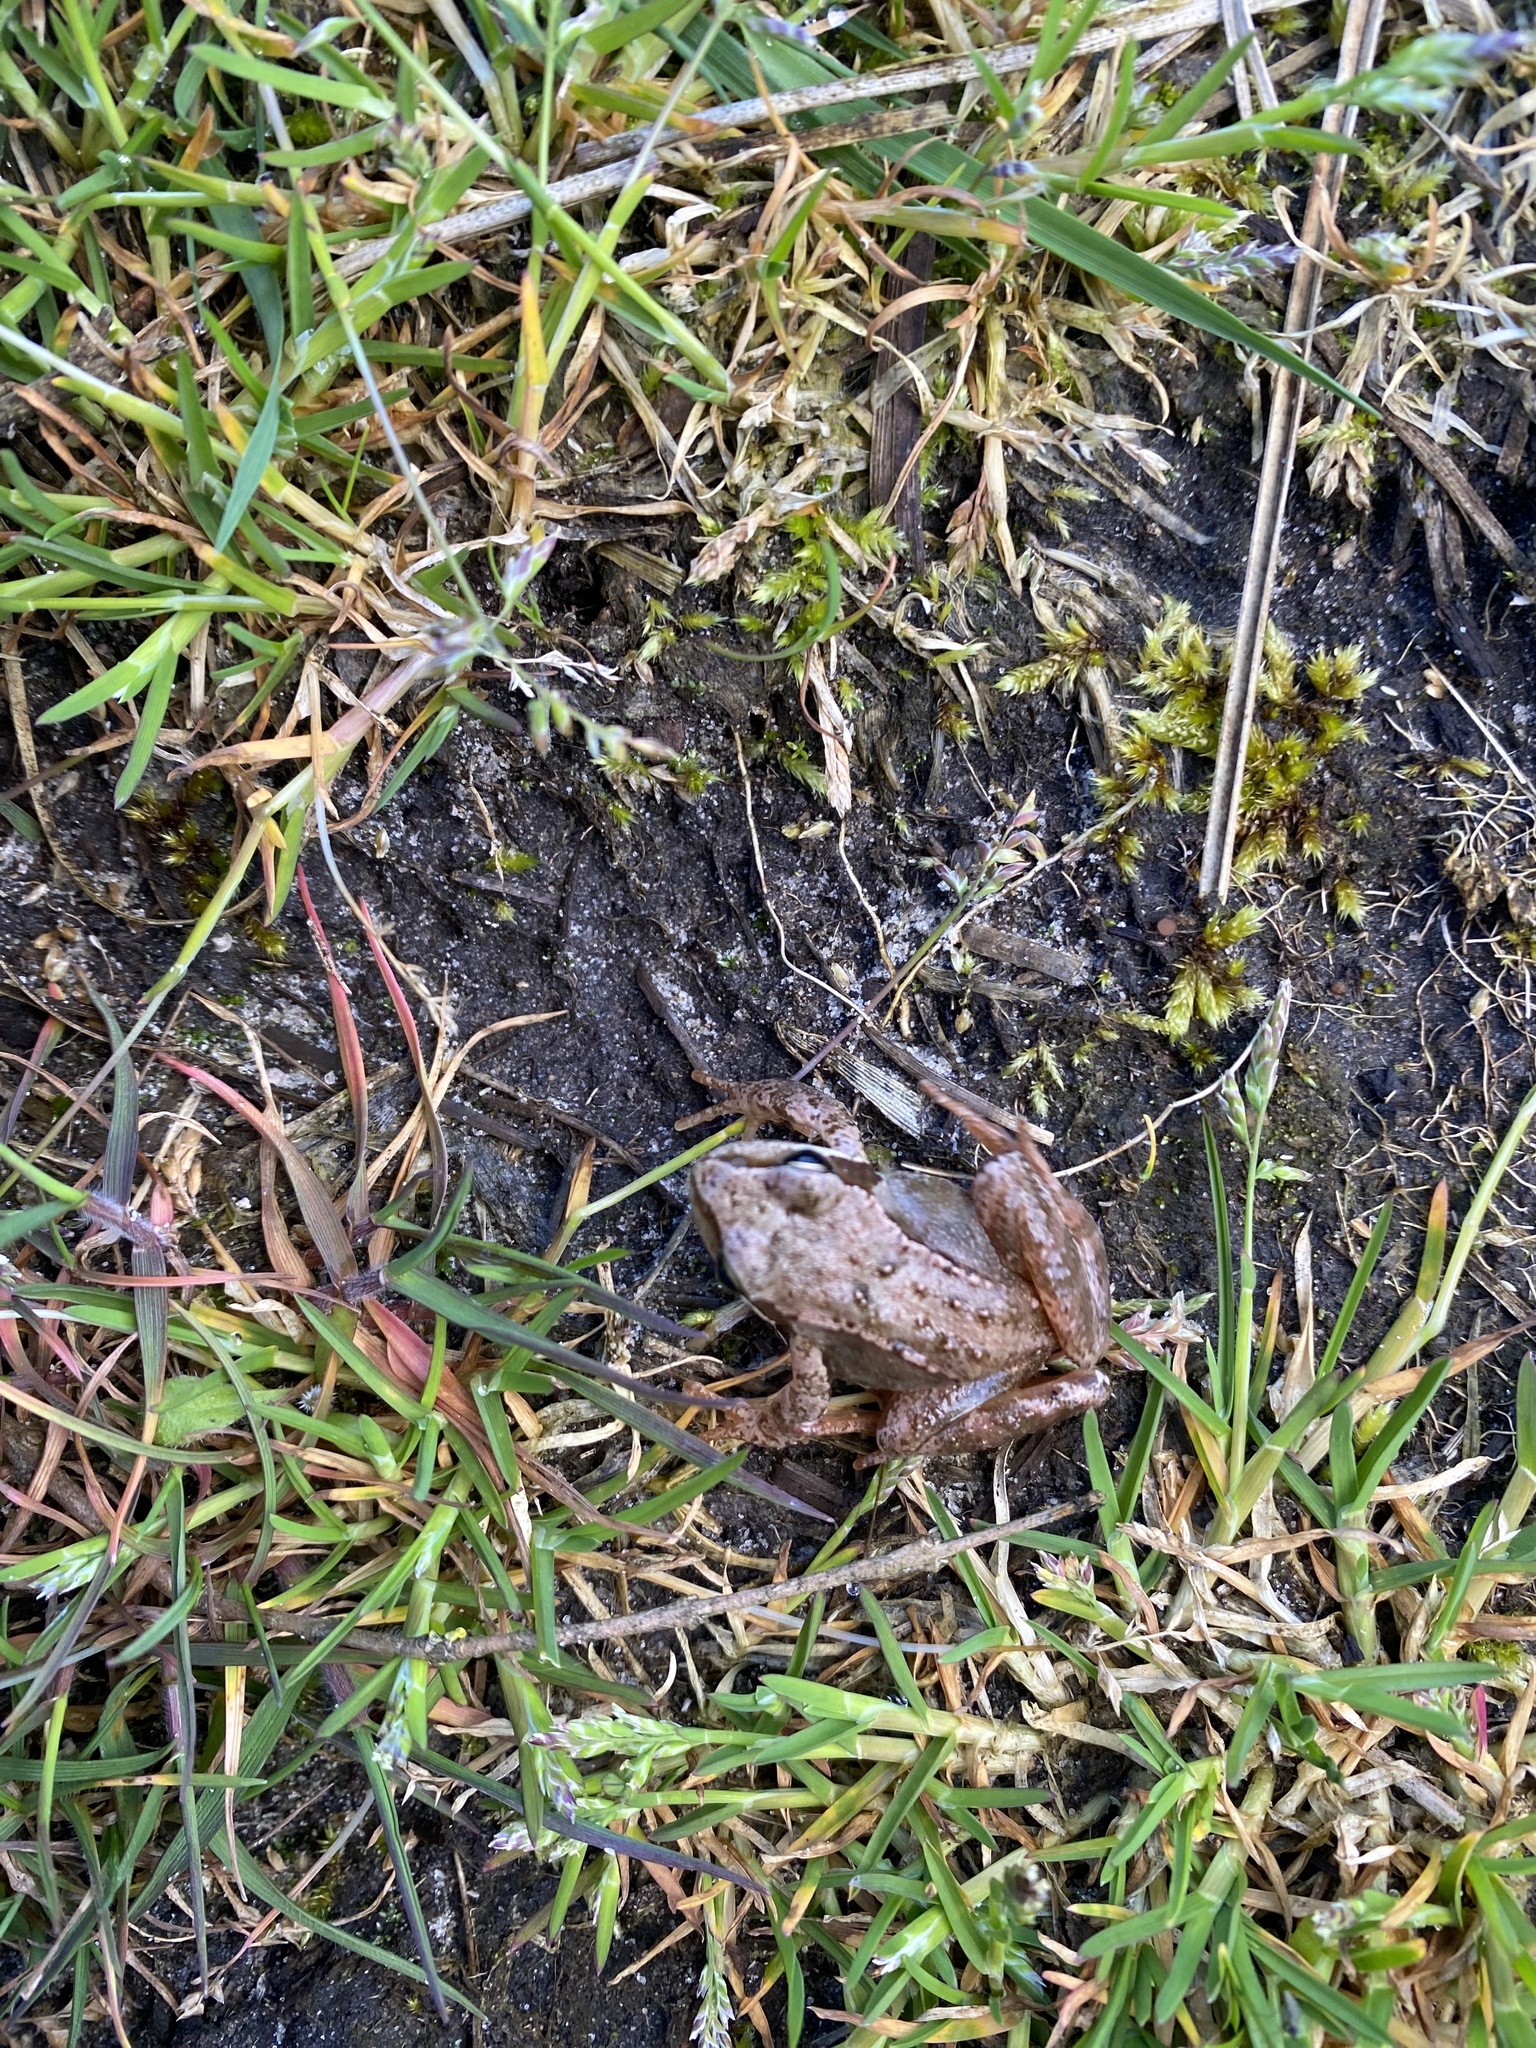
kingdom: Animalia
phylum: Chordata
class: Amphibia
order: Anura
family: Ranidae
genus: Rana
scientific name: Rana temporaria
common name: Common frog
